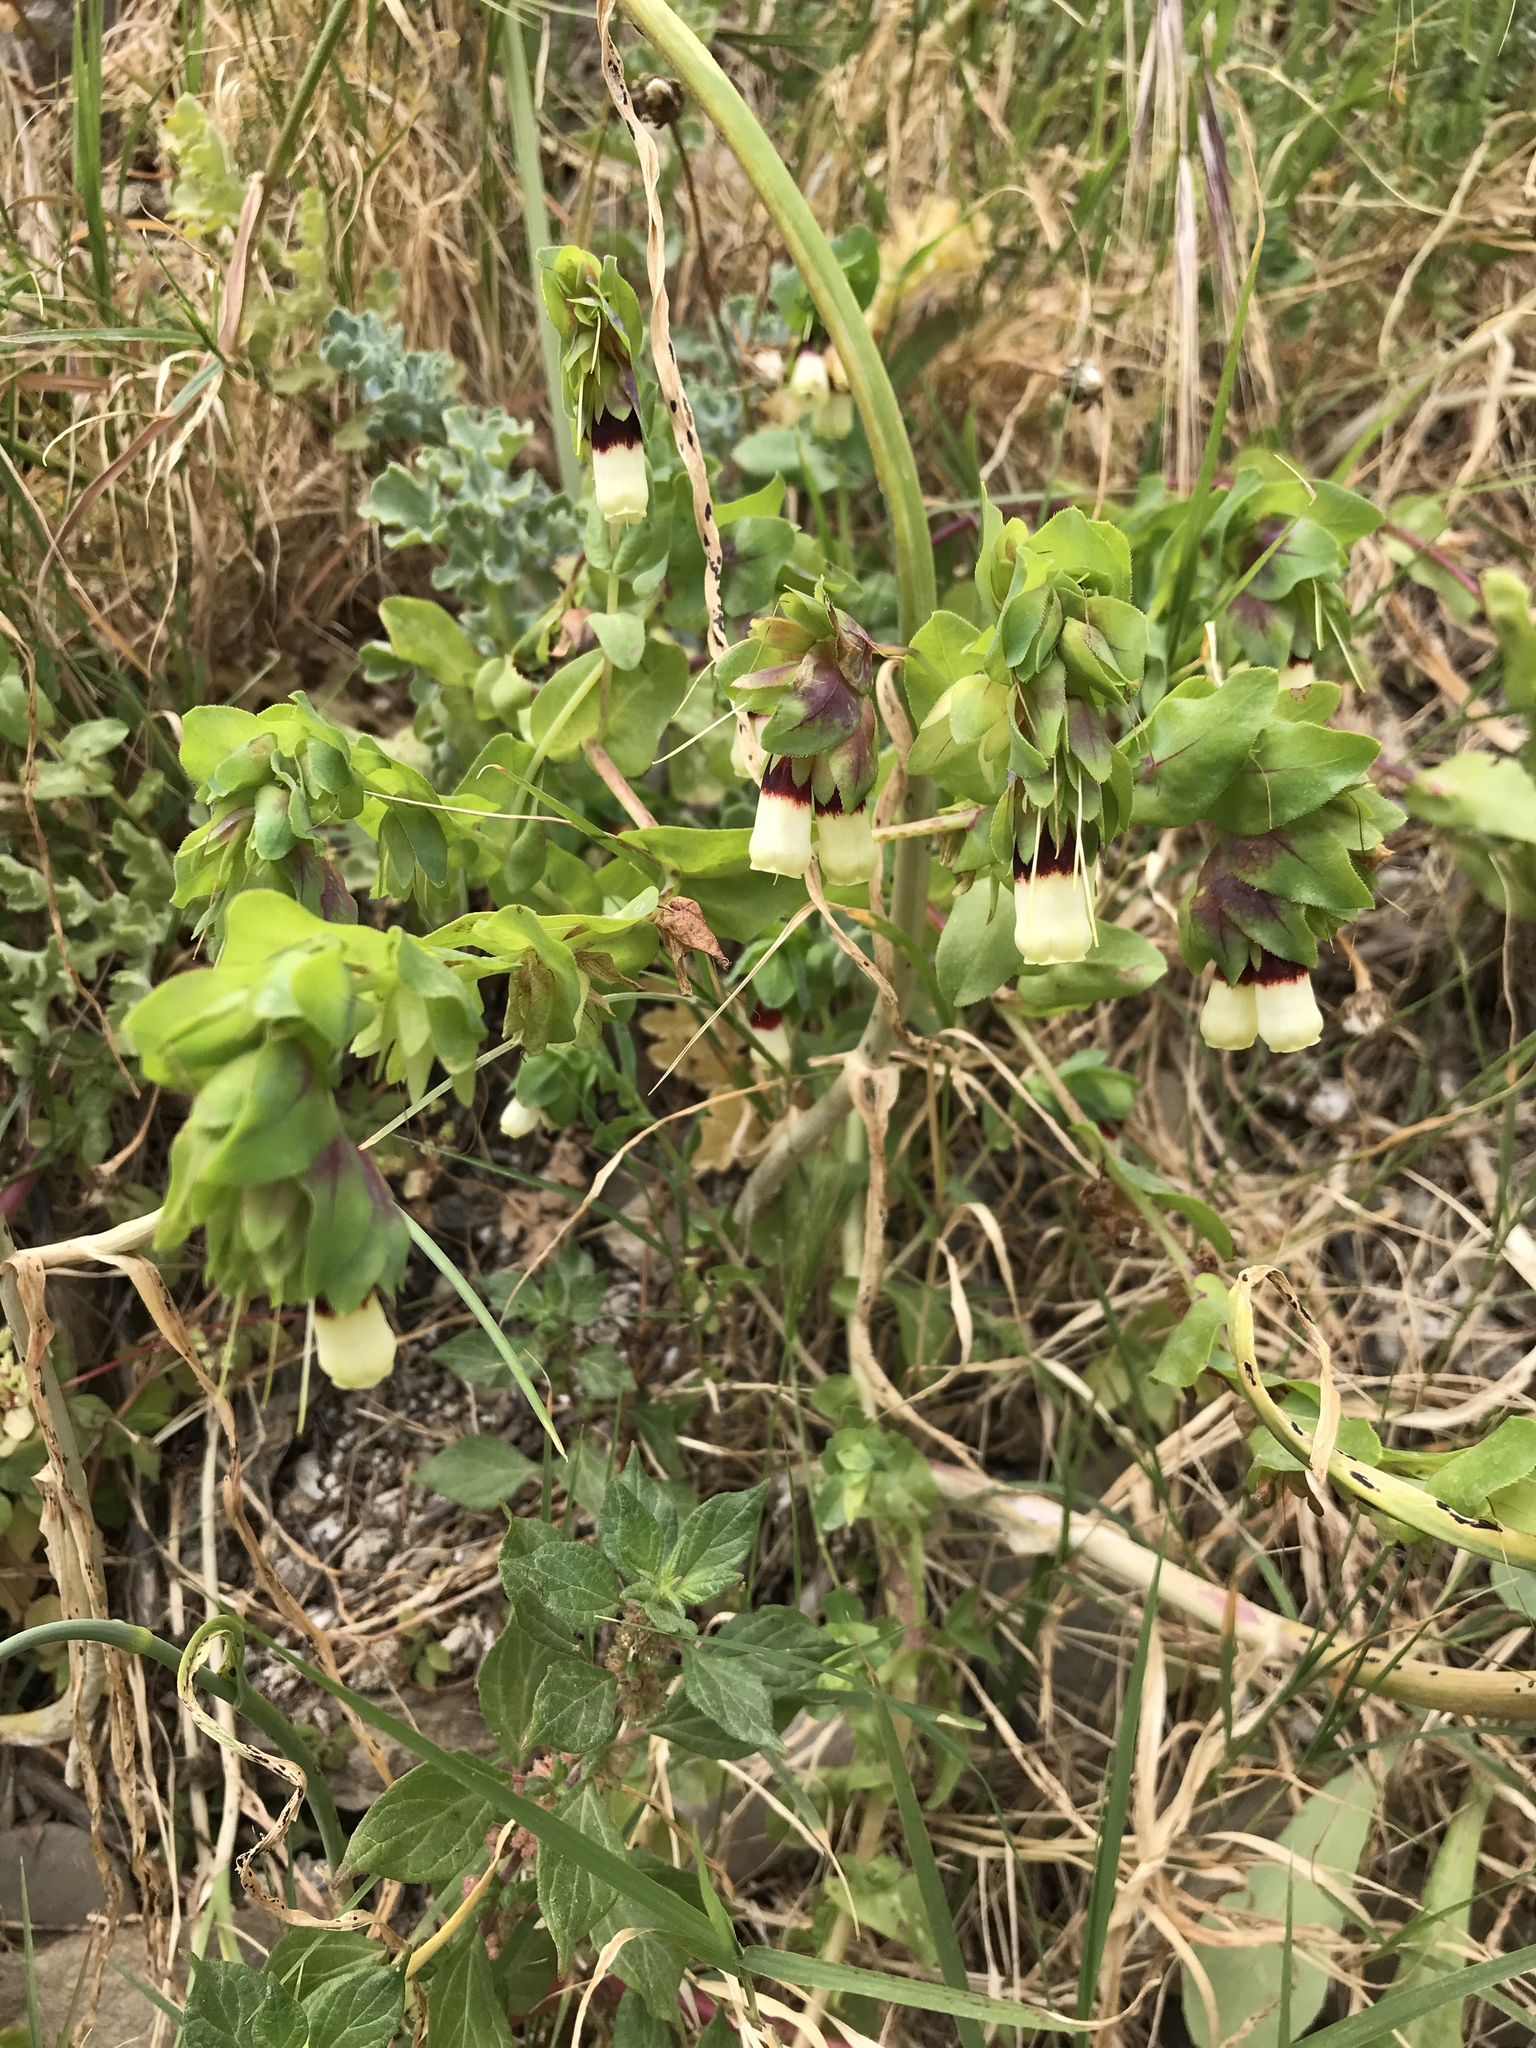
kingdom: Plantae
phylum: Tracheophyta
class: Magnoliopsida
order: Boraginales
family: Boraginaceae
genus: Cerinthe
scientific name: Cerinthe major
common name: Greater honeywort
